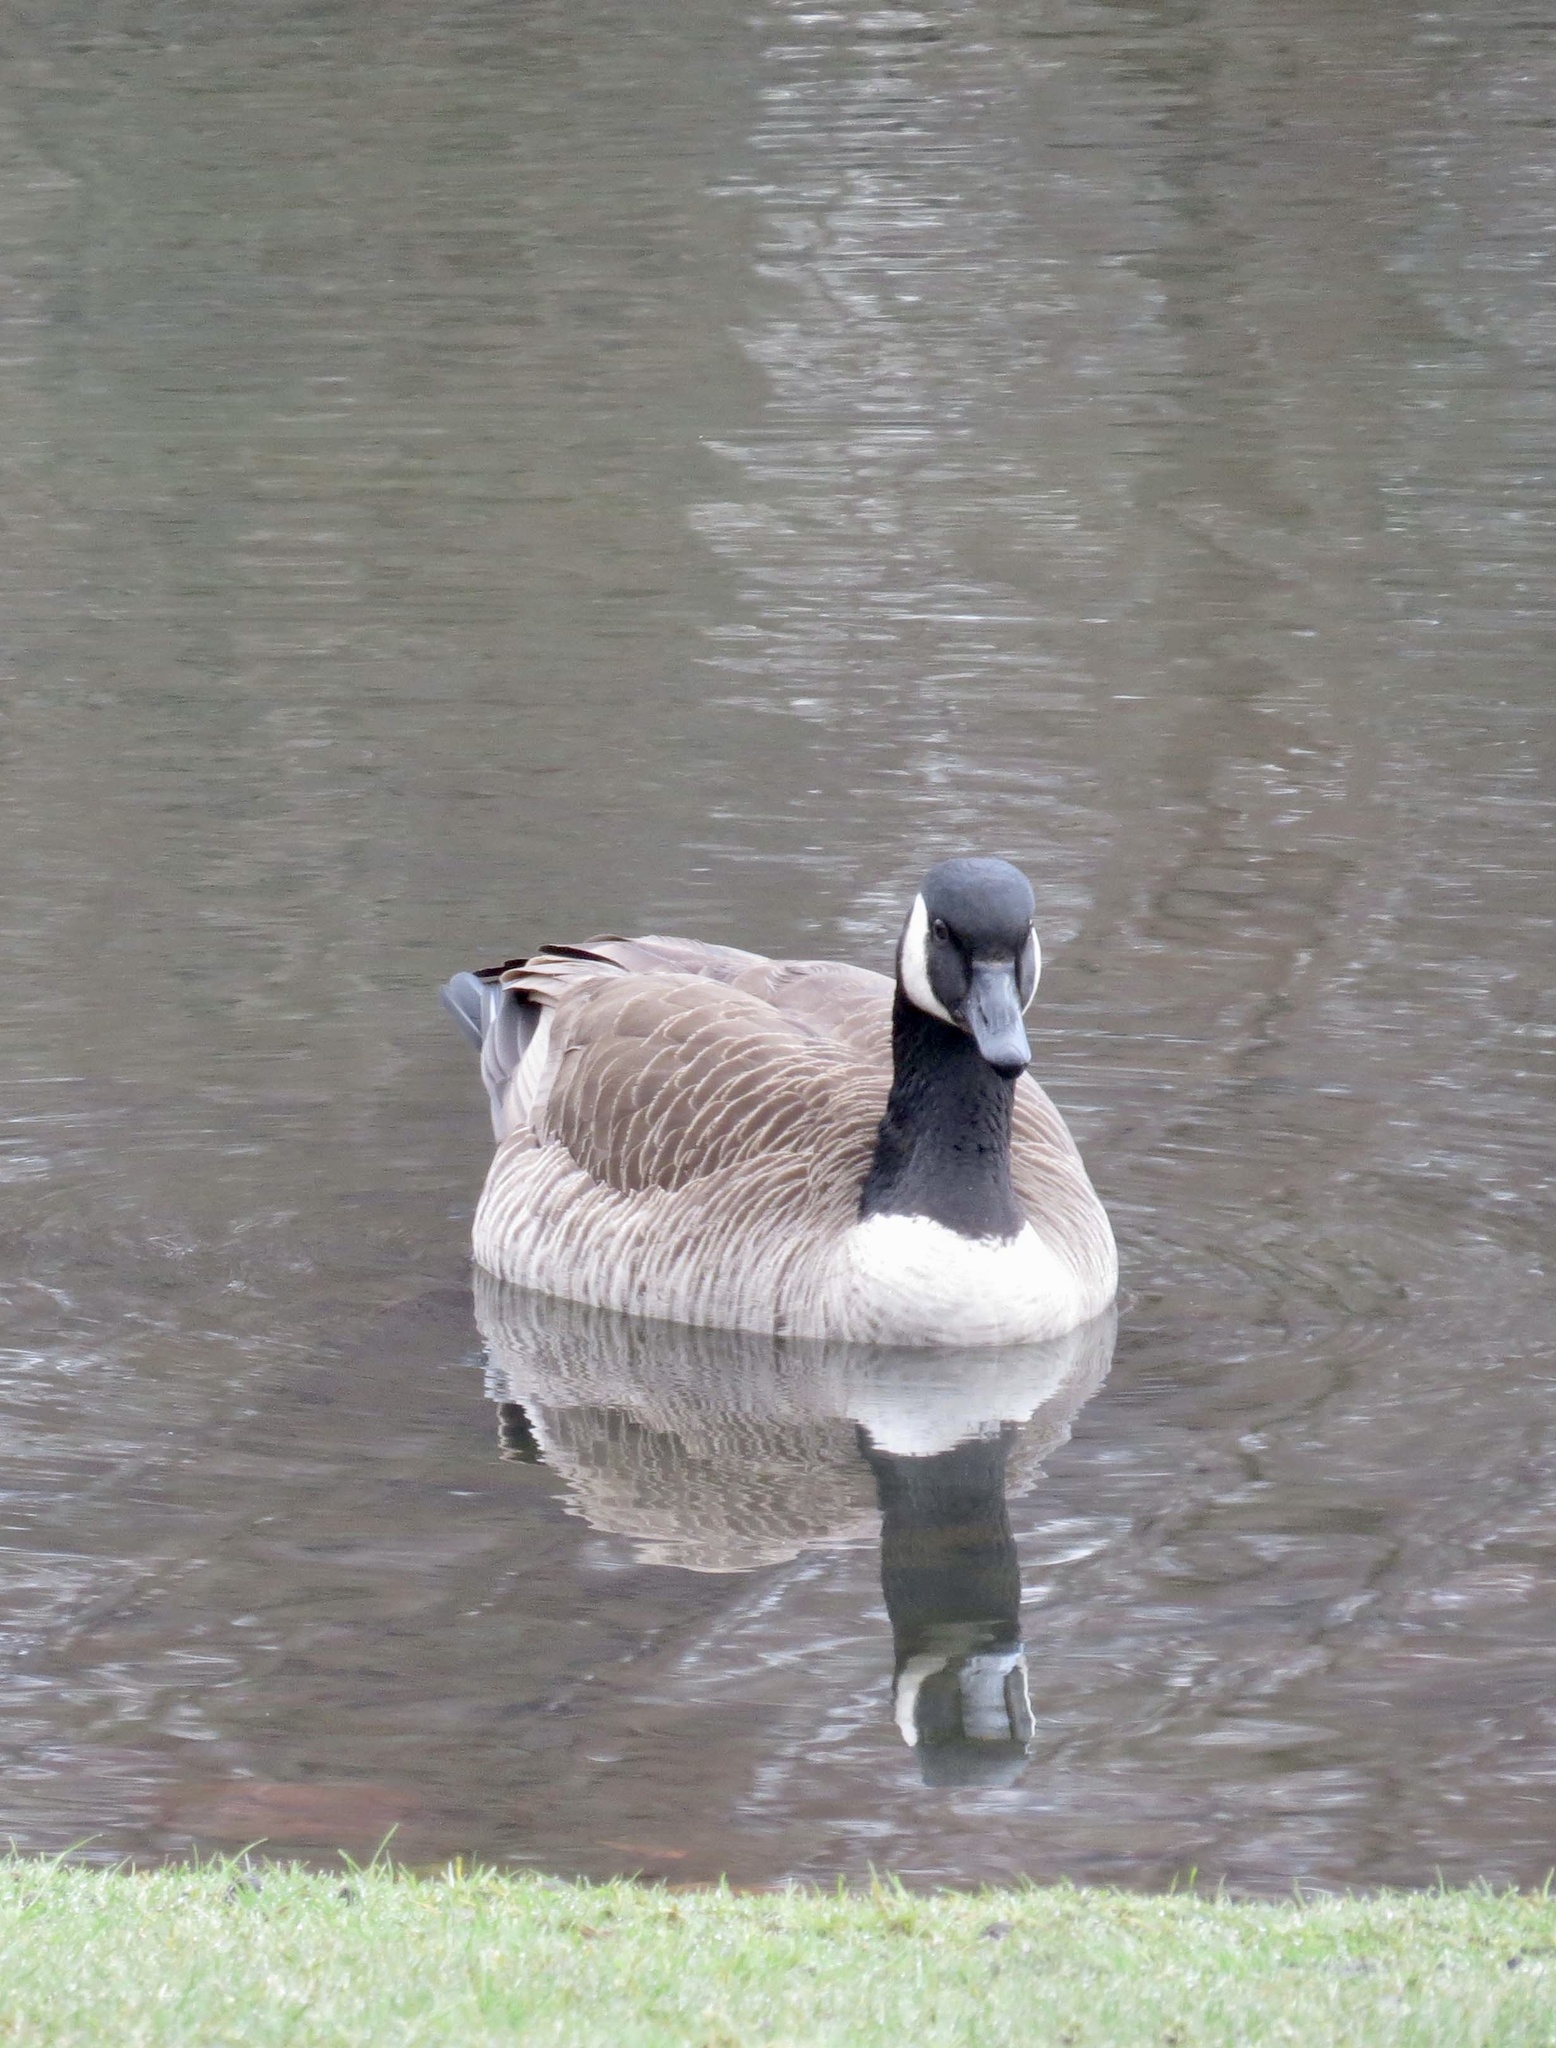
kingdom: Animalia
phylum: Chordata
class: Aves
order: Anseriformes
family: Anatidae
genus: Branta
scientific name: Branta canadensis
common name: Canada goose
